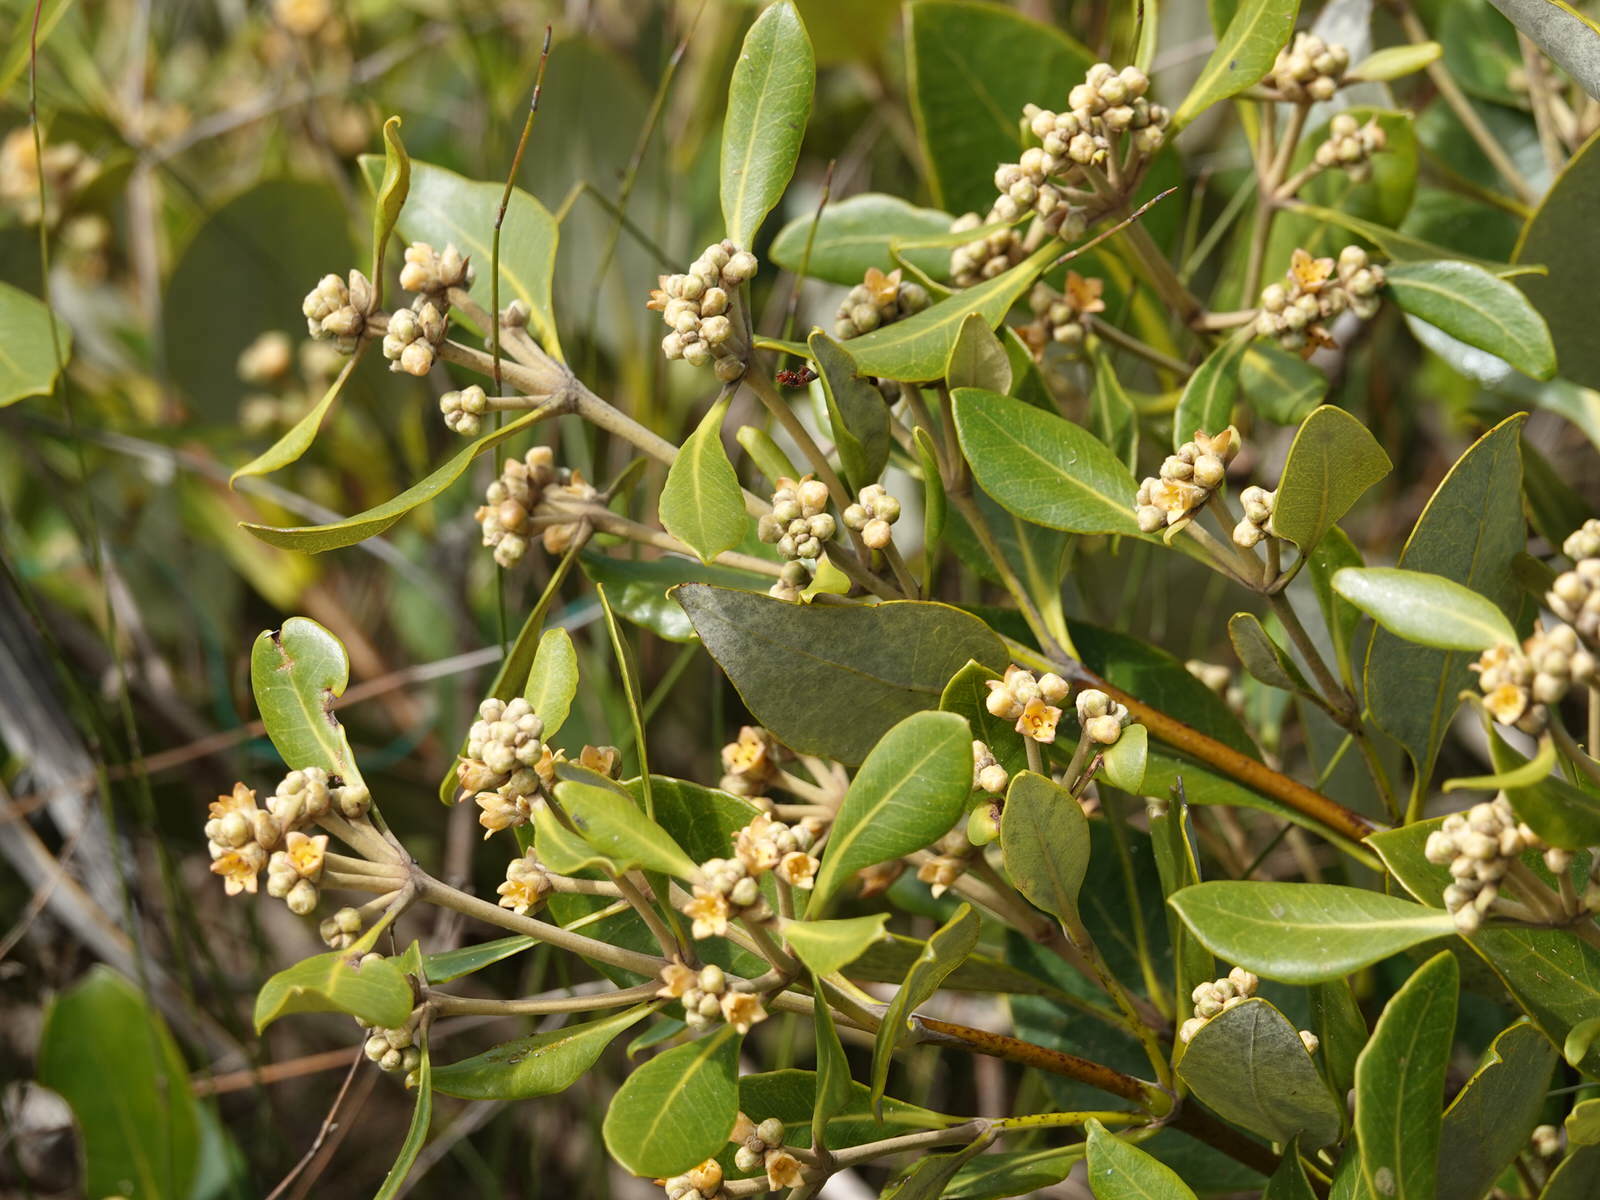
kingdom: Plantae
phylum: Tracheophyta
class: Magnoliopsida
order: Lamiales
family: Acanthaceae
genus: Avicennia
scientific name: Avicennia marina
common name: Gray mangrove
